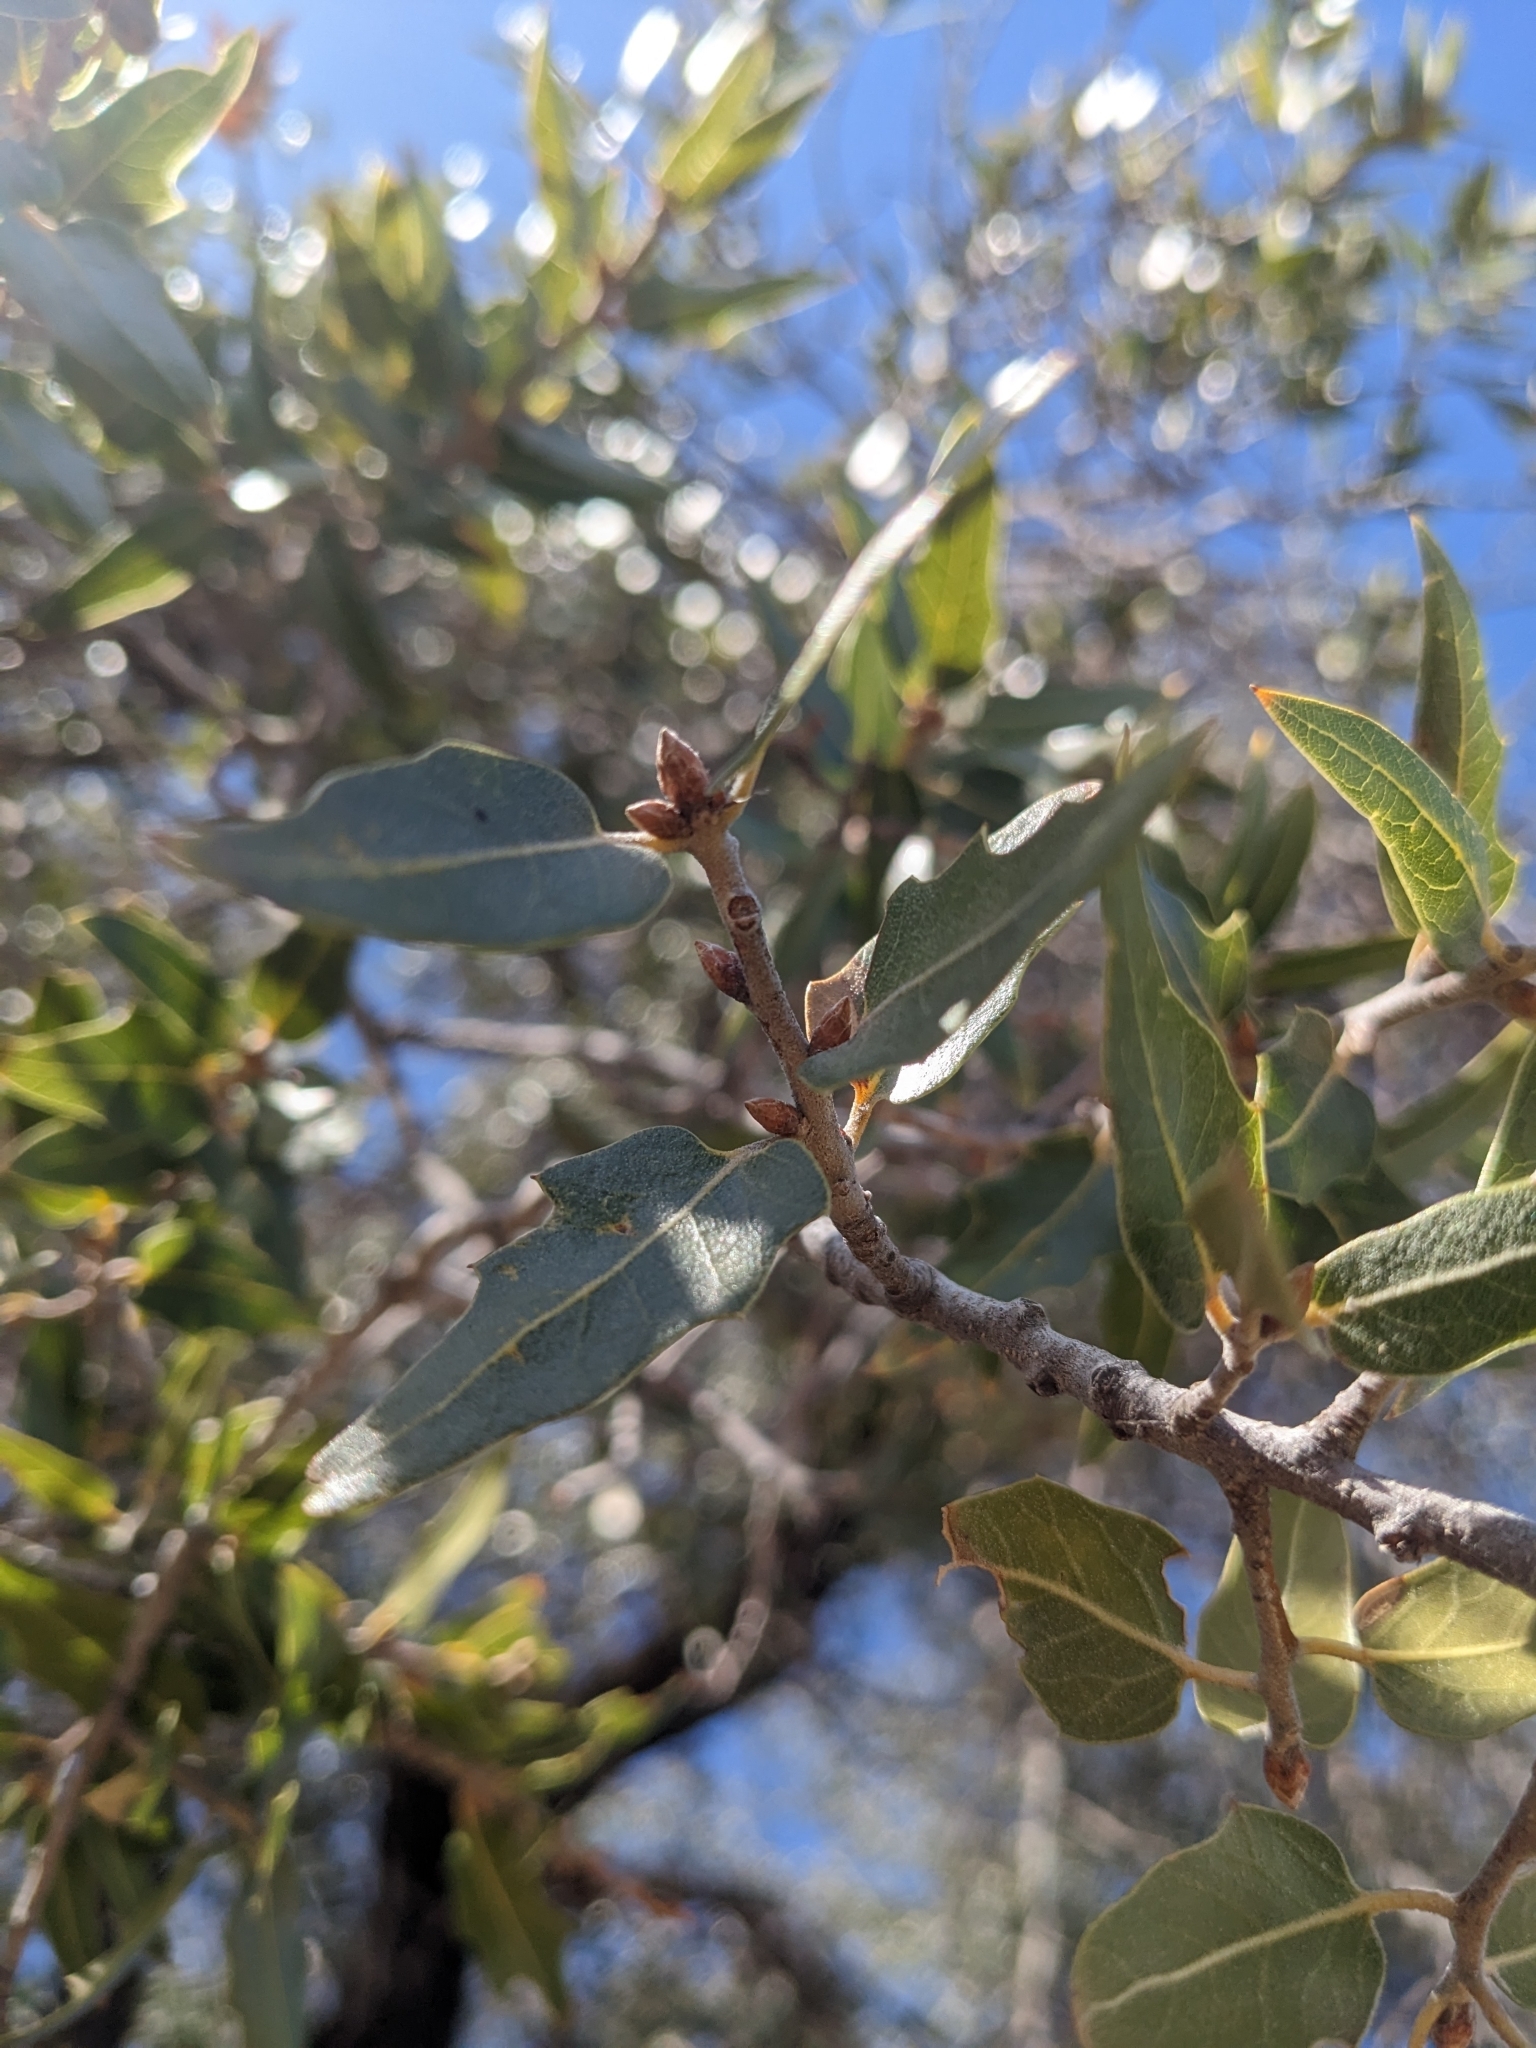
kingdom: Plantae
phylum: Tracheophyta
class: Magnoliopsida
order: Fagales
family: Fagaceae
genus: Quercus
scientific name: Quercus emoryi
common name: Emory oak
